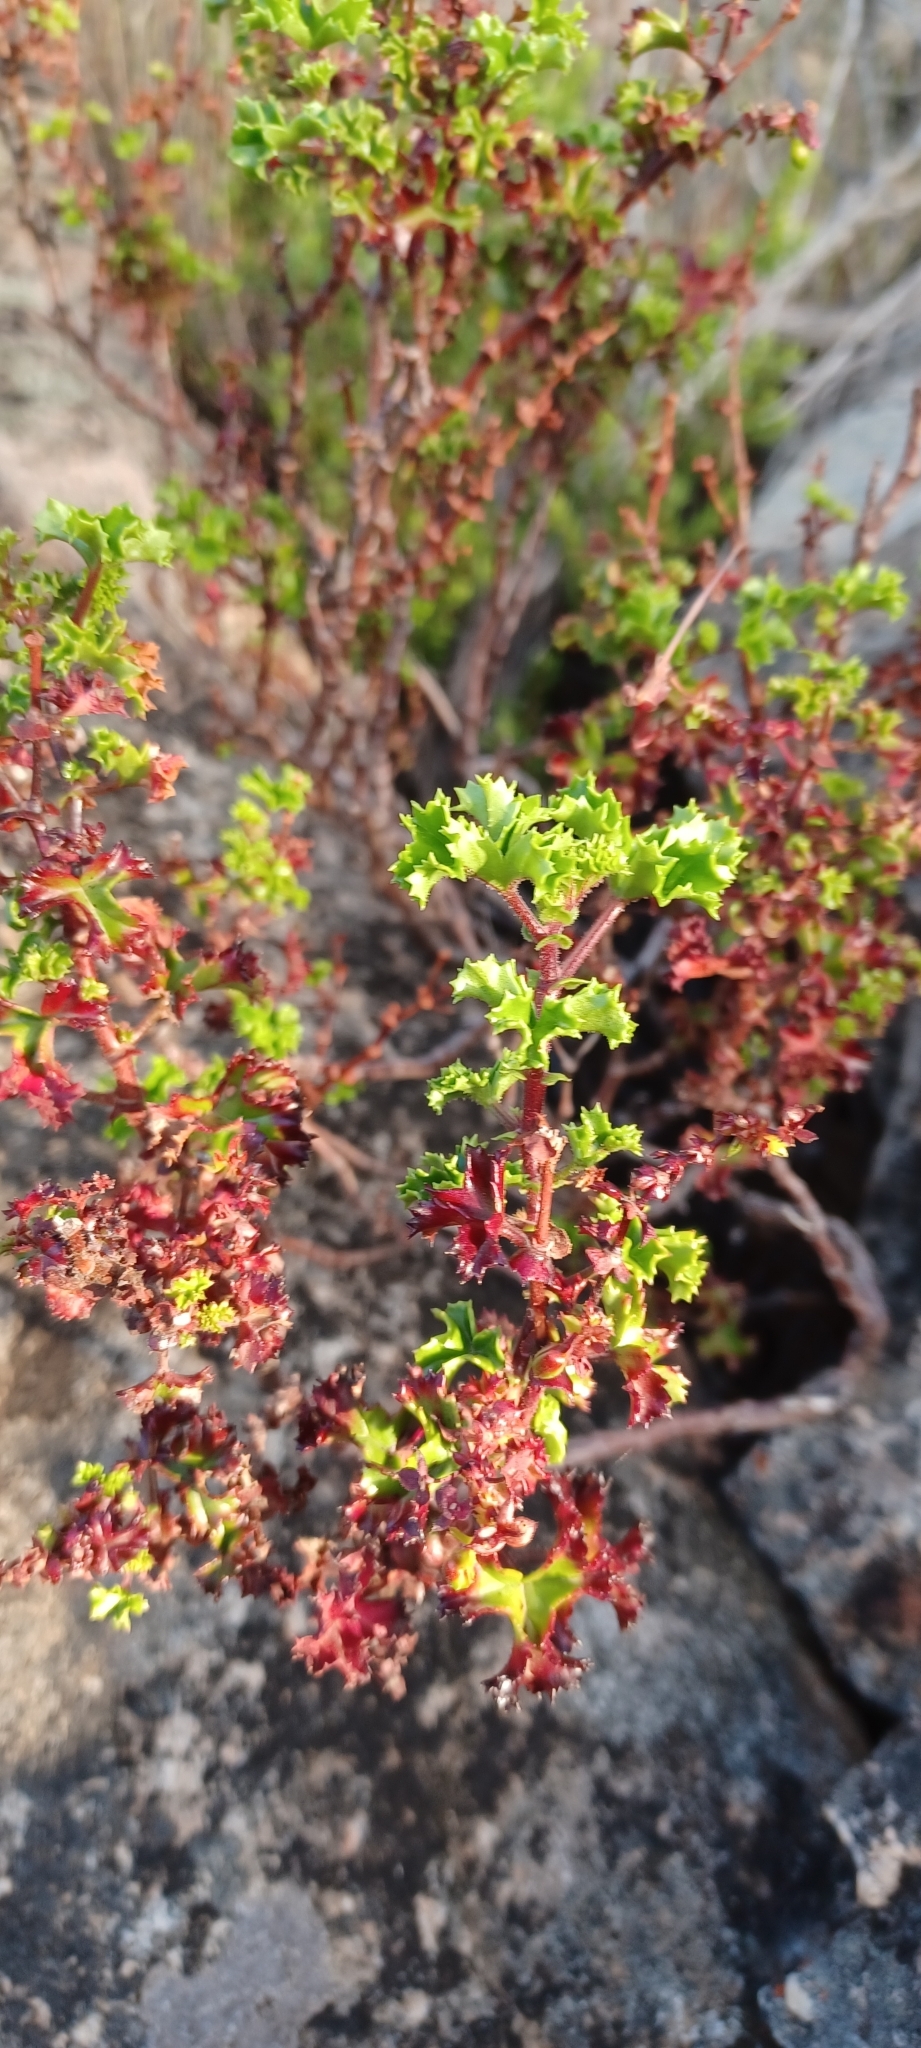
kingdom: Plantae
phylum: Tracheophyta
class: Magnoliopsida
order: Geraniales
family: Geraniaceae
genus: Pelargonium
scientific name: Pelargonium englerianum
